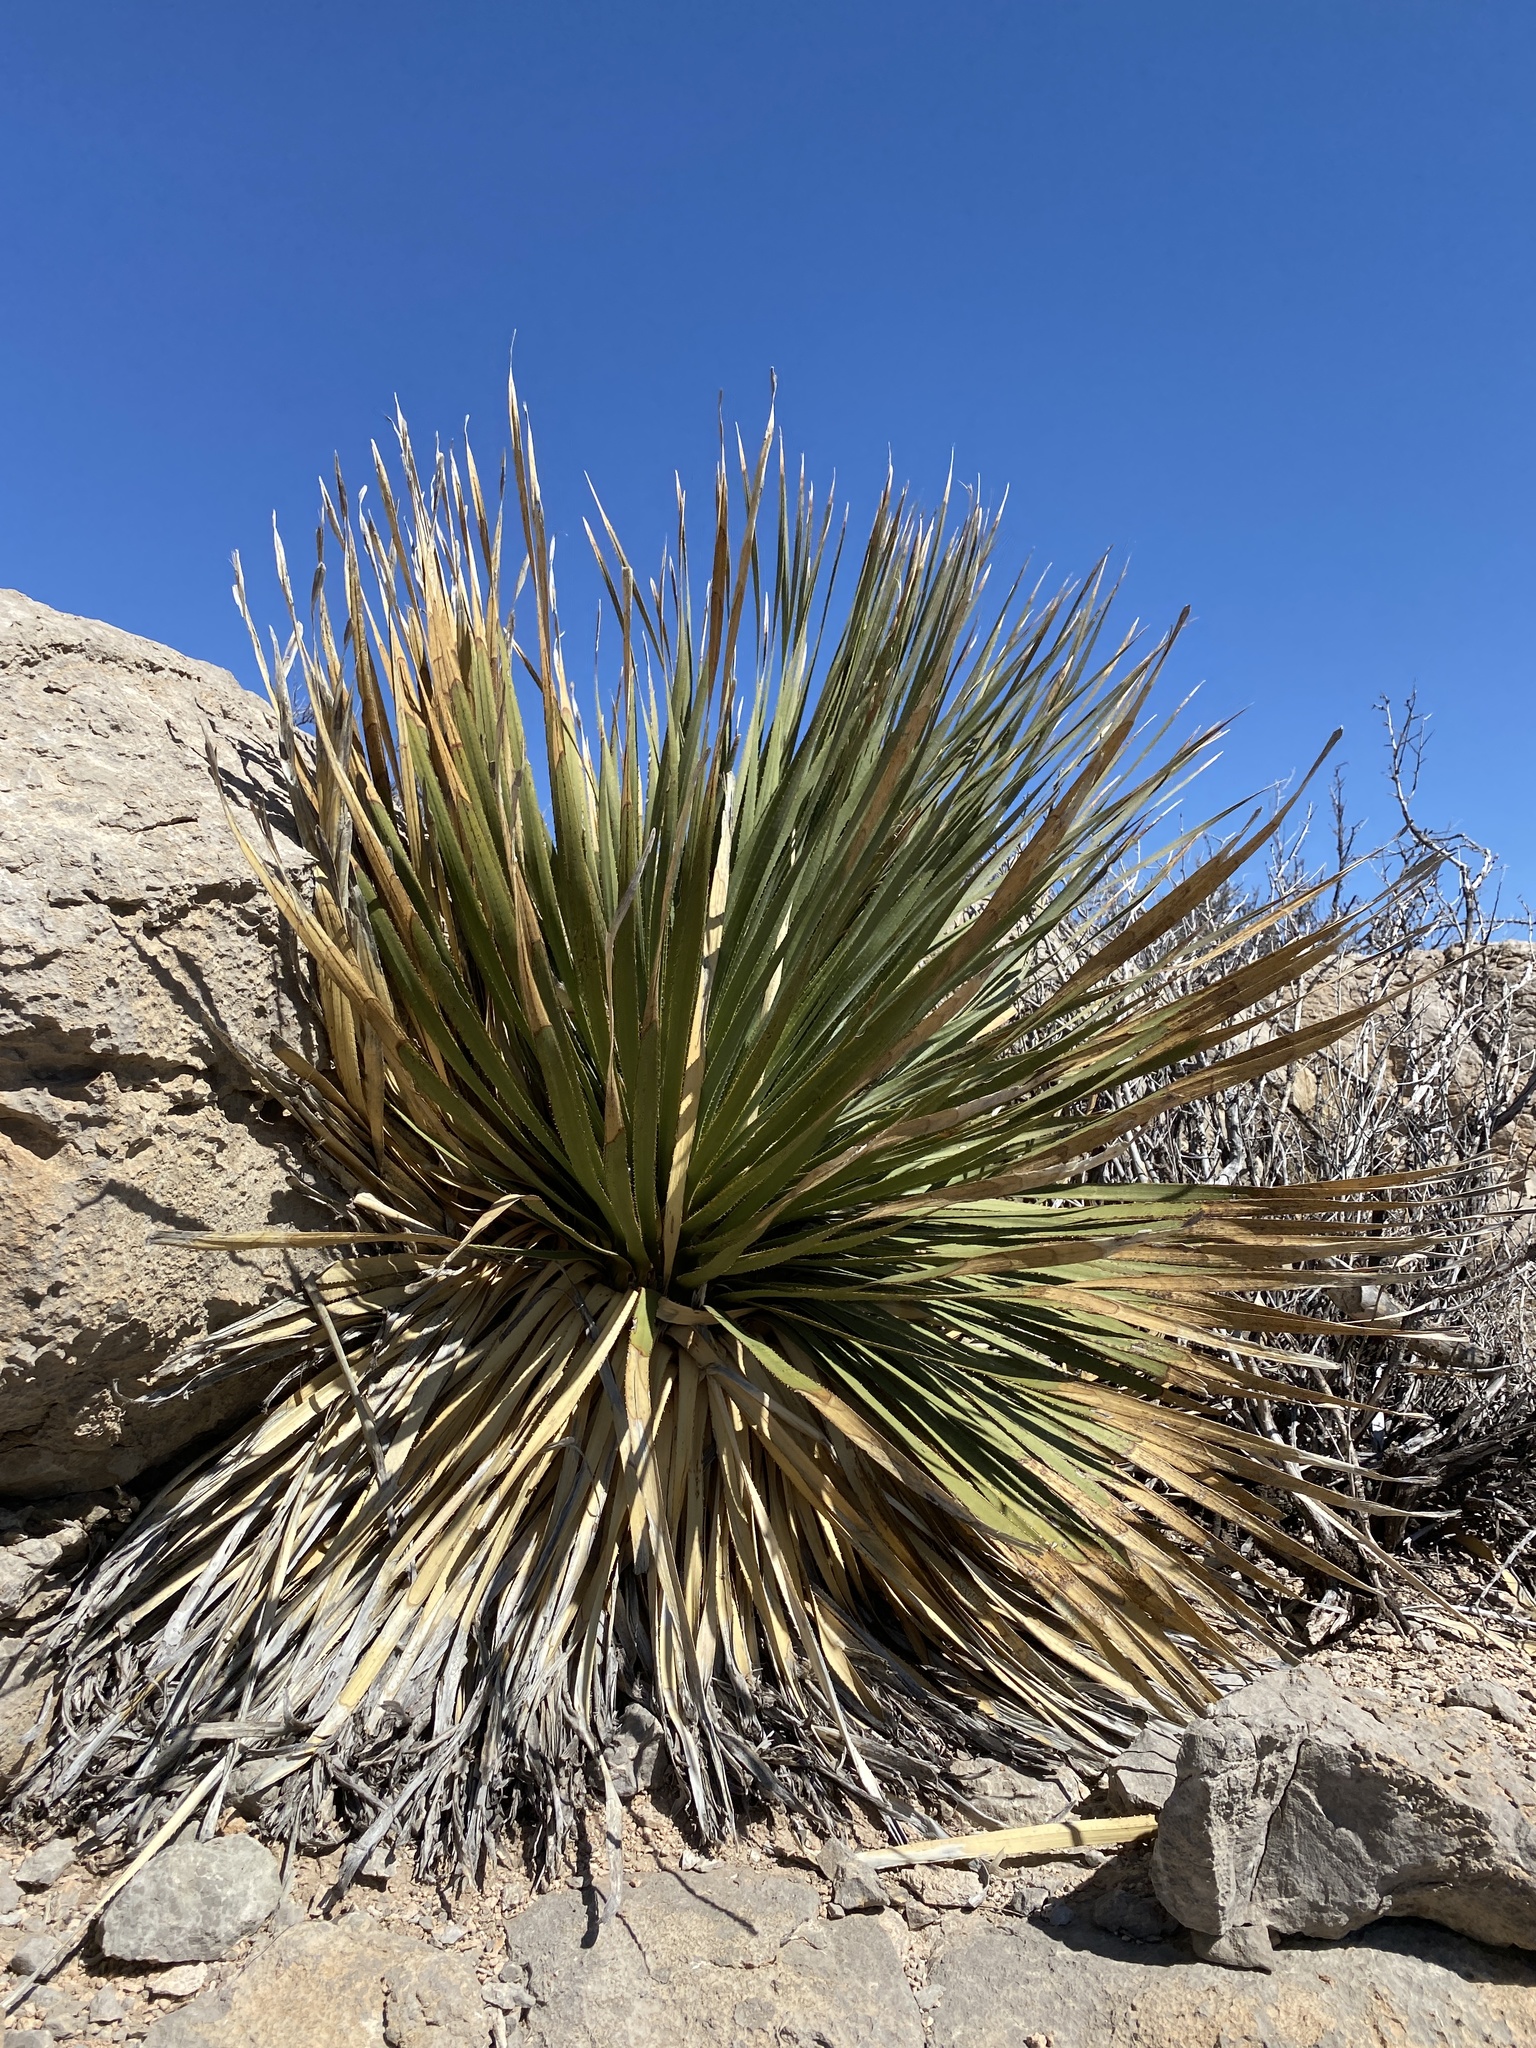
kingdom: Plantae
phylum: Tracheophyta
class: Liliopsida
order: Asparagales
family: Asparagaceae
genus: Dasylirion
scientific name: Dasylirion wheeleri
